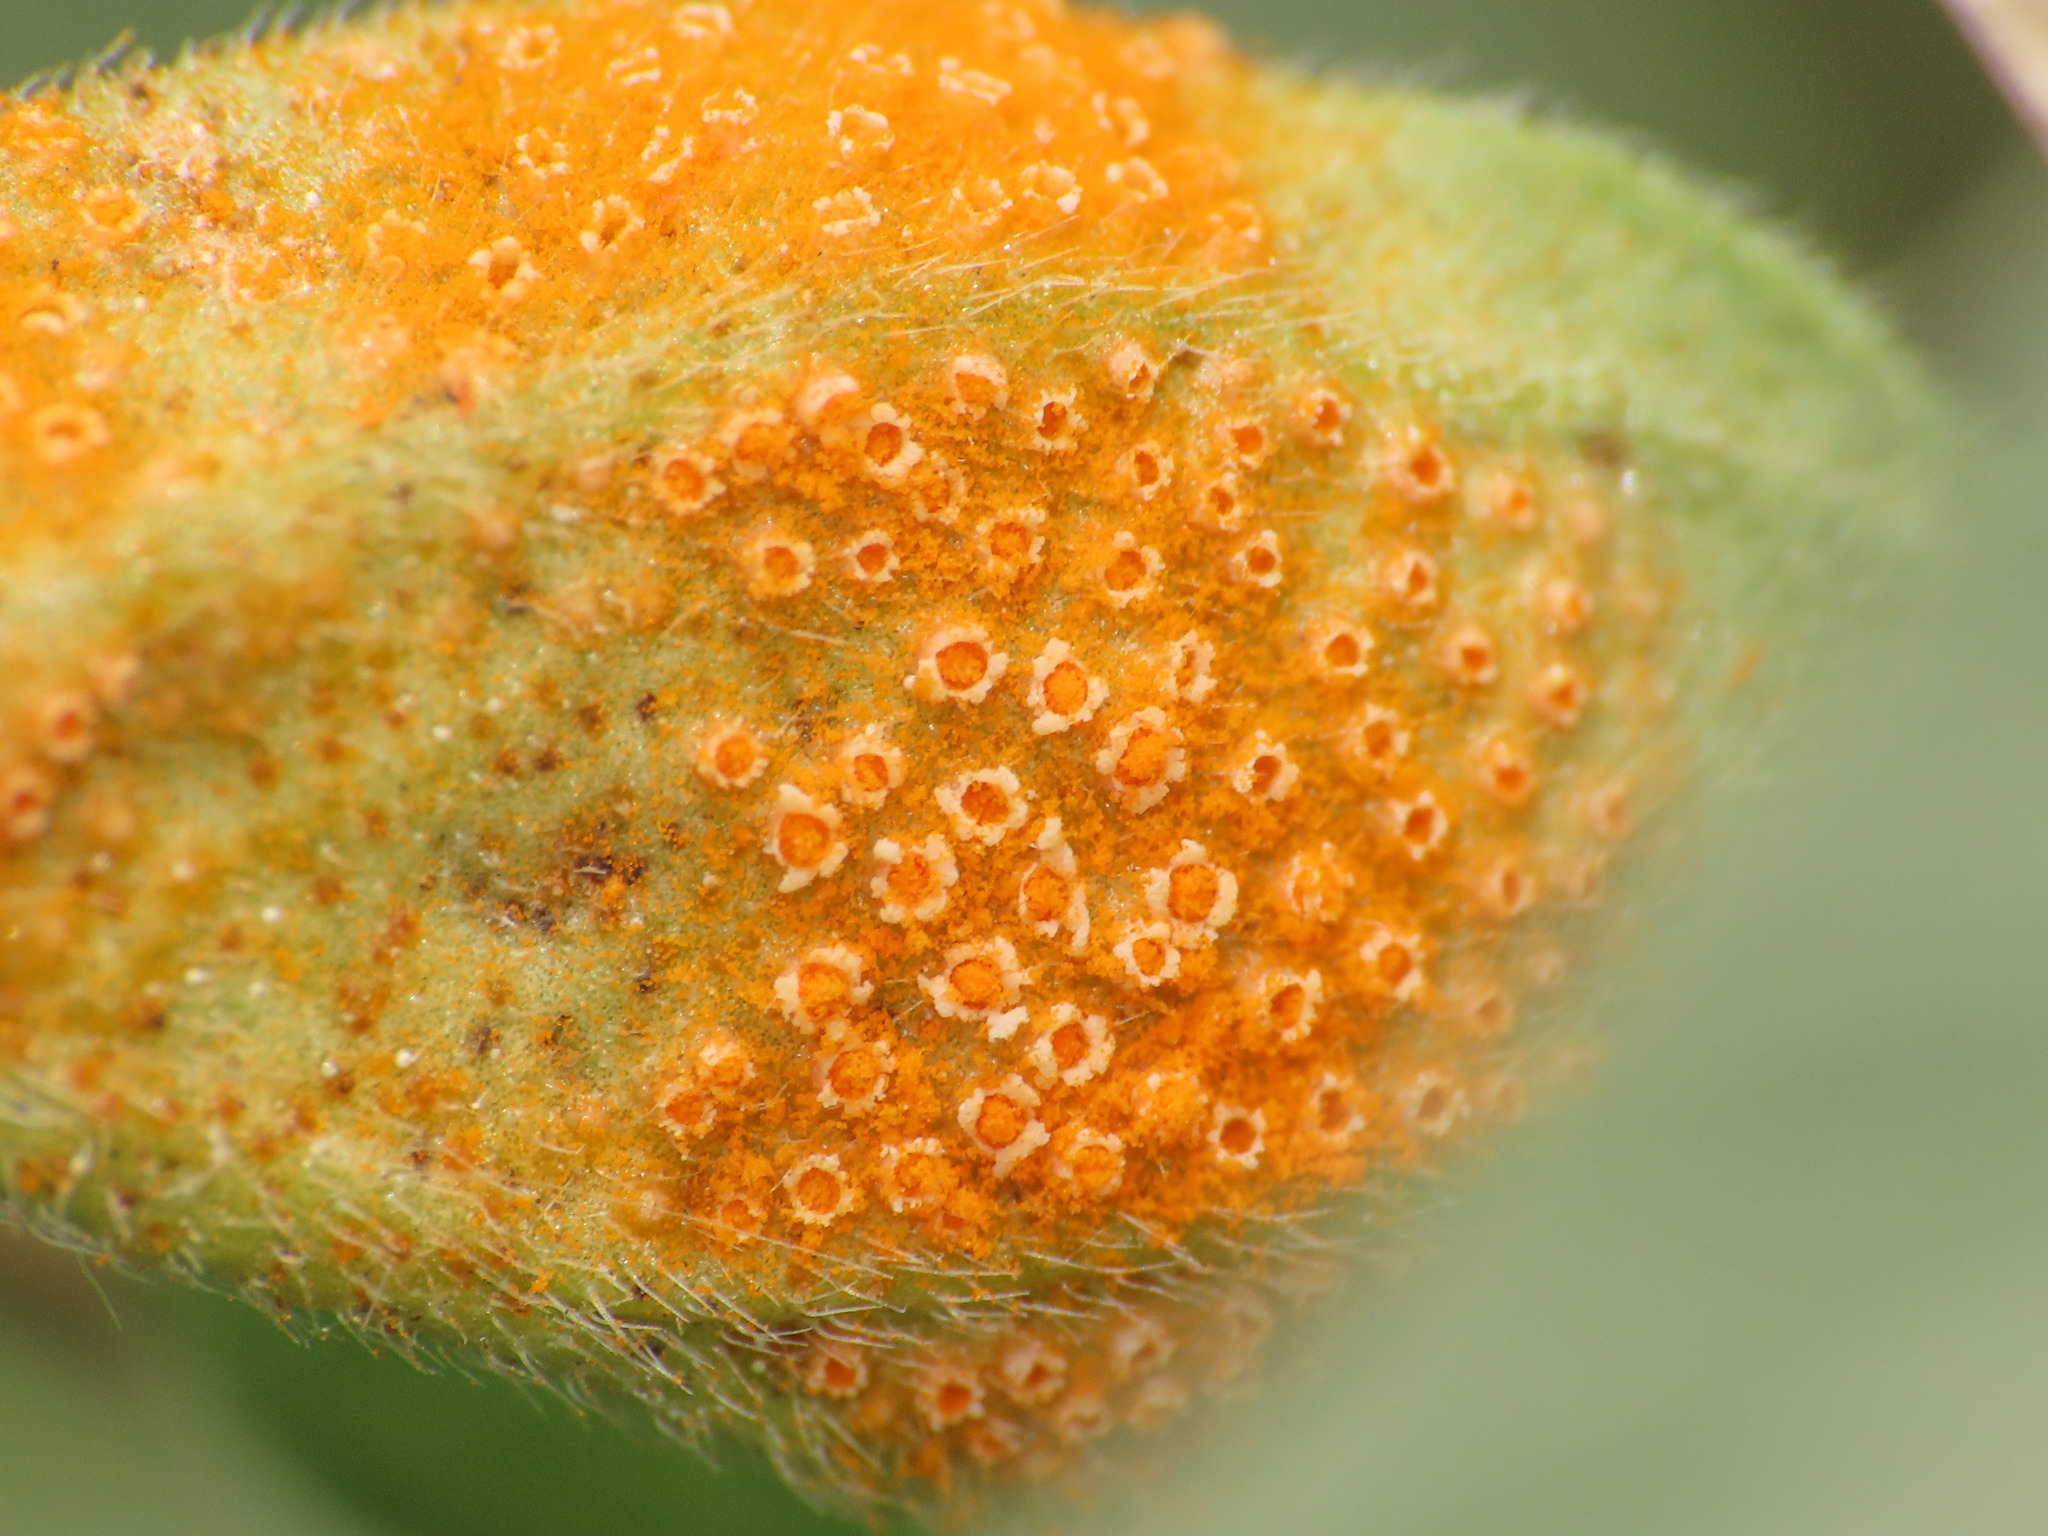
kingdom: Fungi
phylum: Basidiomycota
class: Pucciniomycetes
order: Pucciniales
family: Pucciniaceae
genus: Uromyces
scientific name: Uromyces heliotropii
